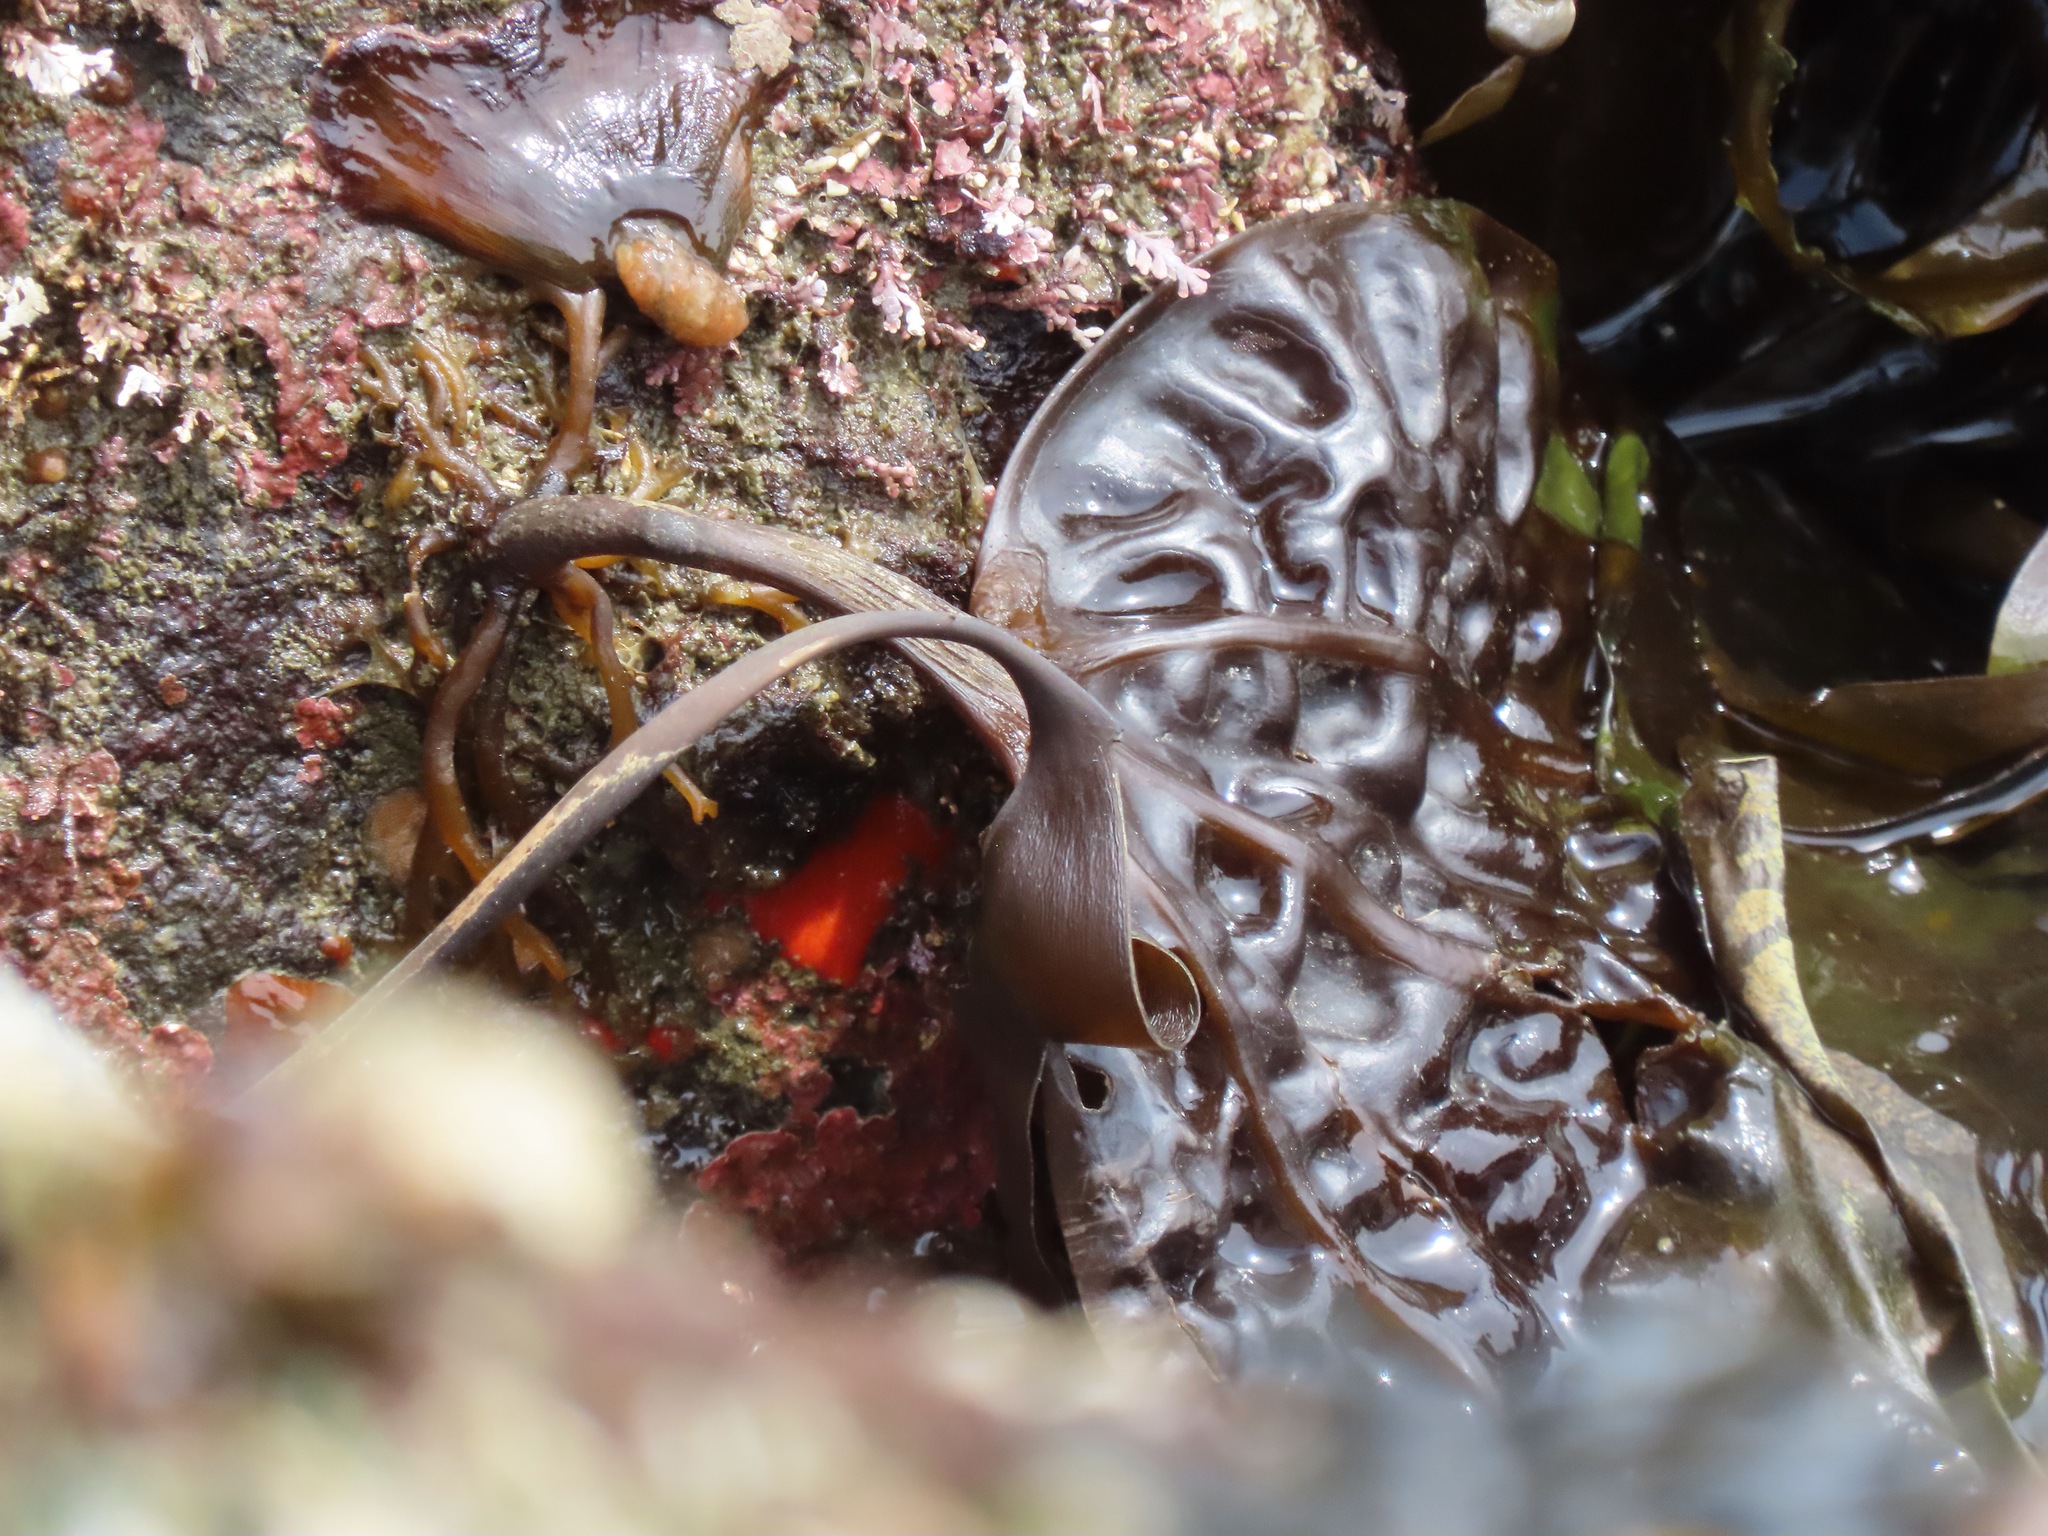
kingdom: Chromista
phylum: Ochrophyta
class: Phaeophyceae
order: Laminariales
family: Costariaceae
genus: Costaria
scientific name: Costaria costata
